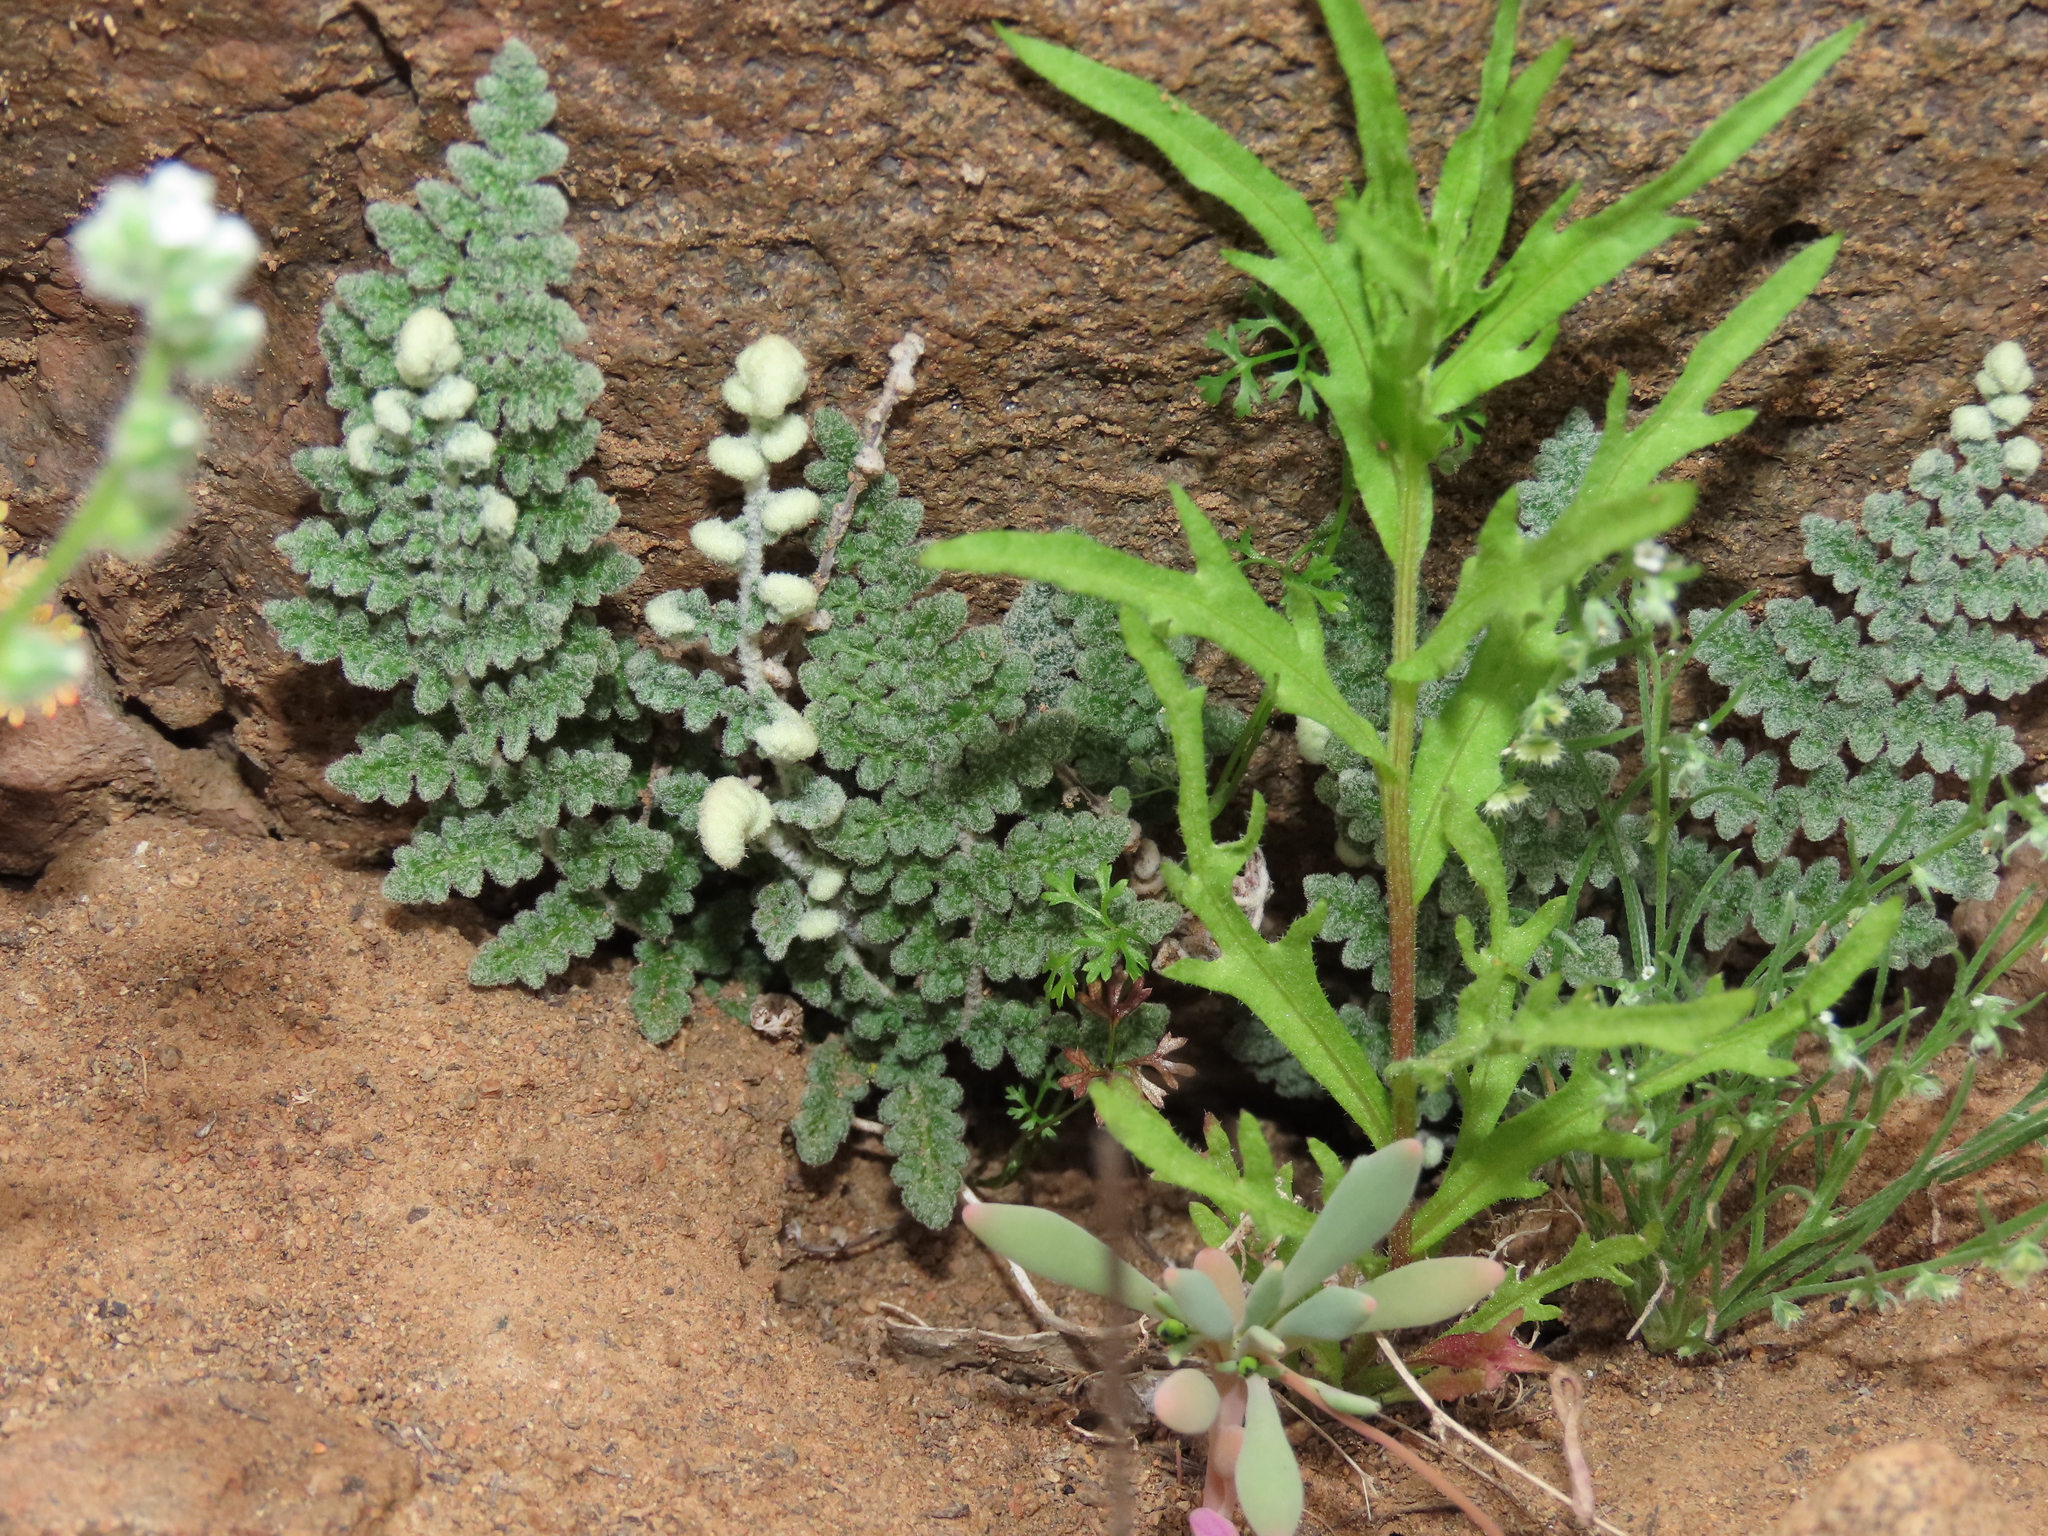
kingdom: Plantae
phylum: Tracheophyta
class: Polypodiopsida
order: Polypodiales
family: Pteridaceae
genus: Cheilanthes
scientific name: Cheilanthes mollis
